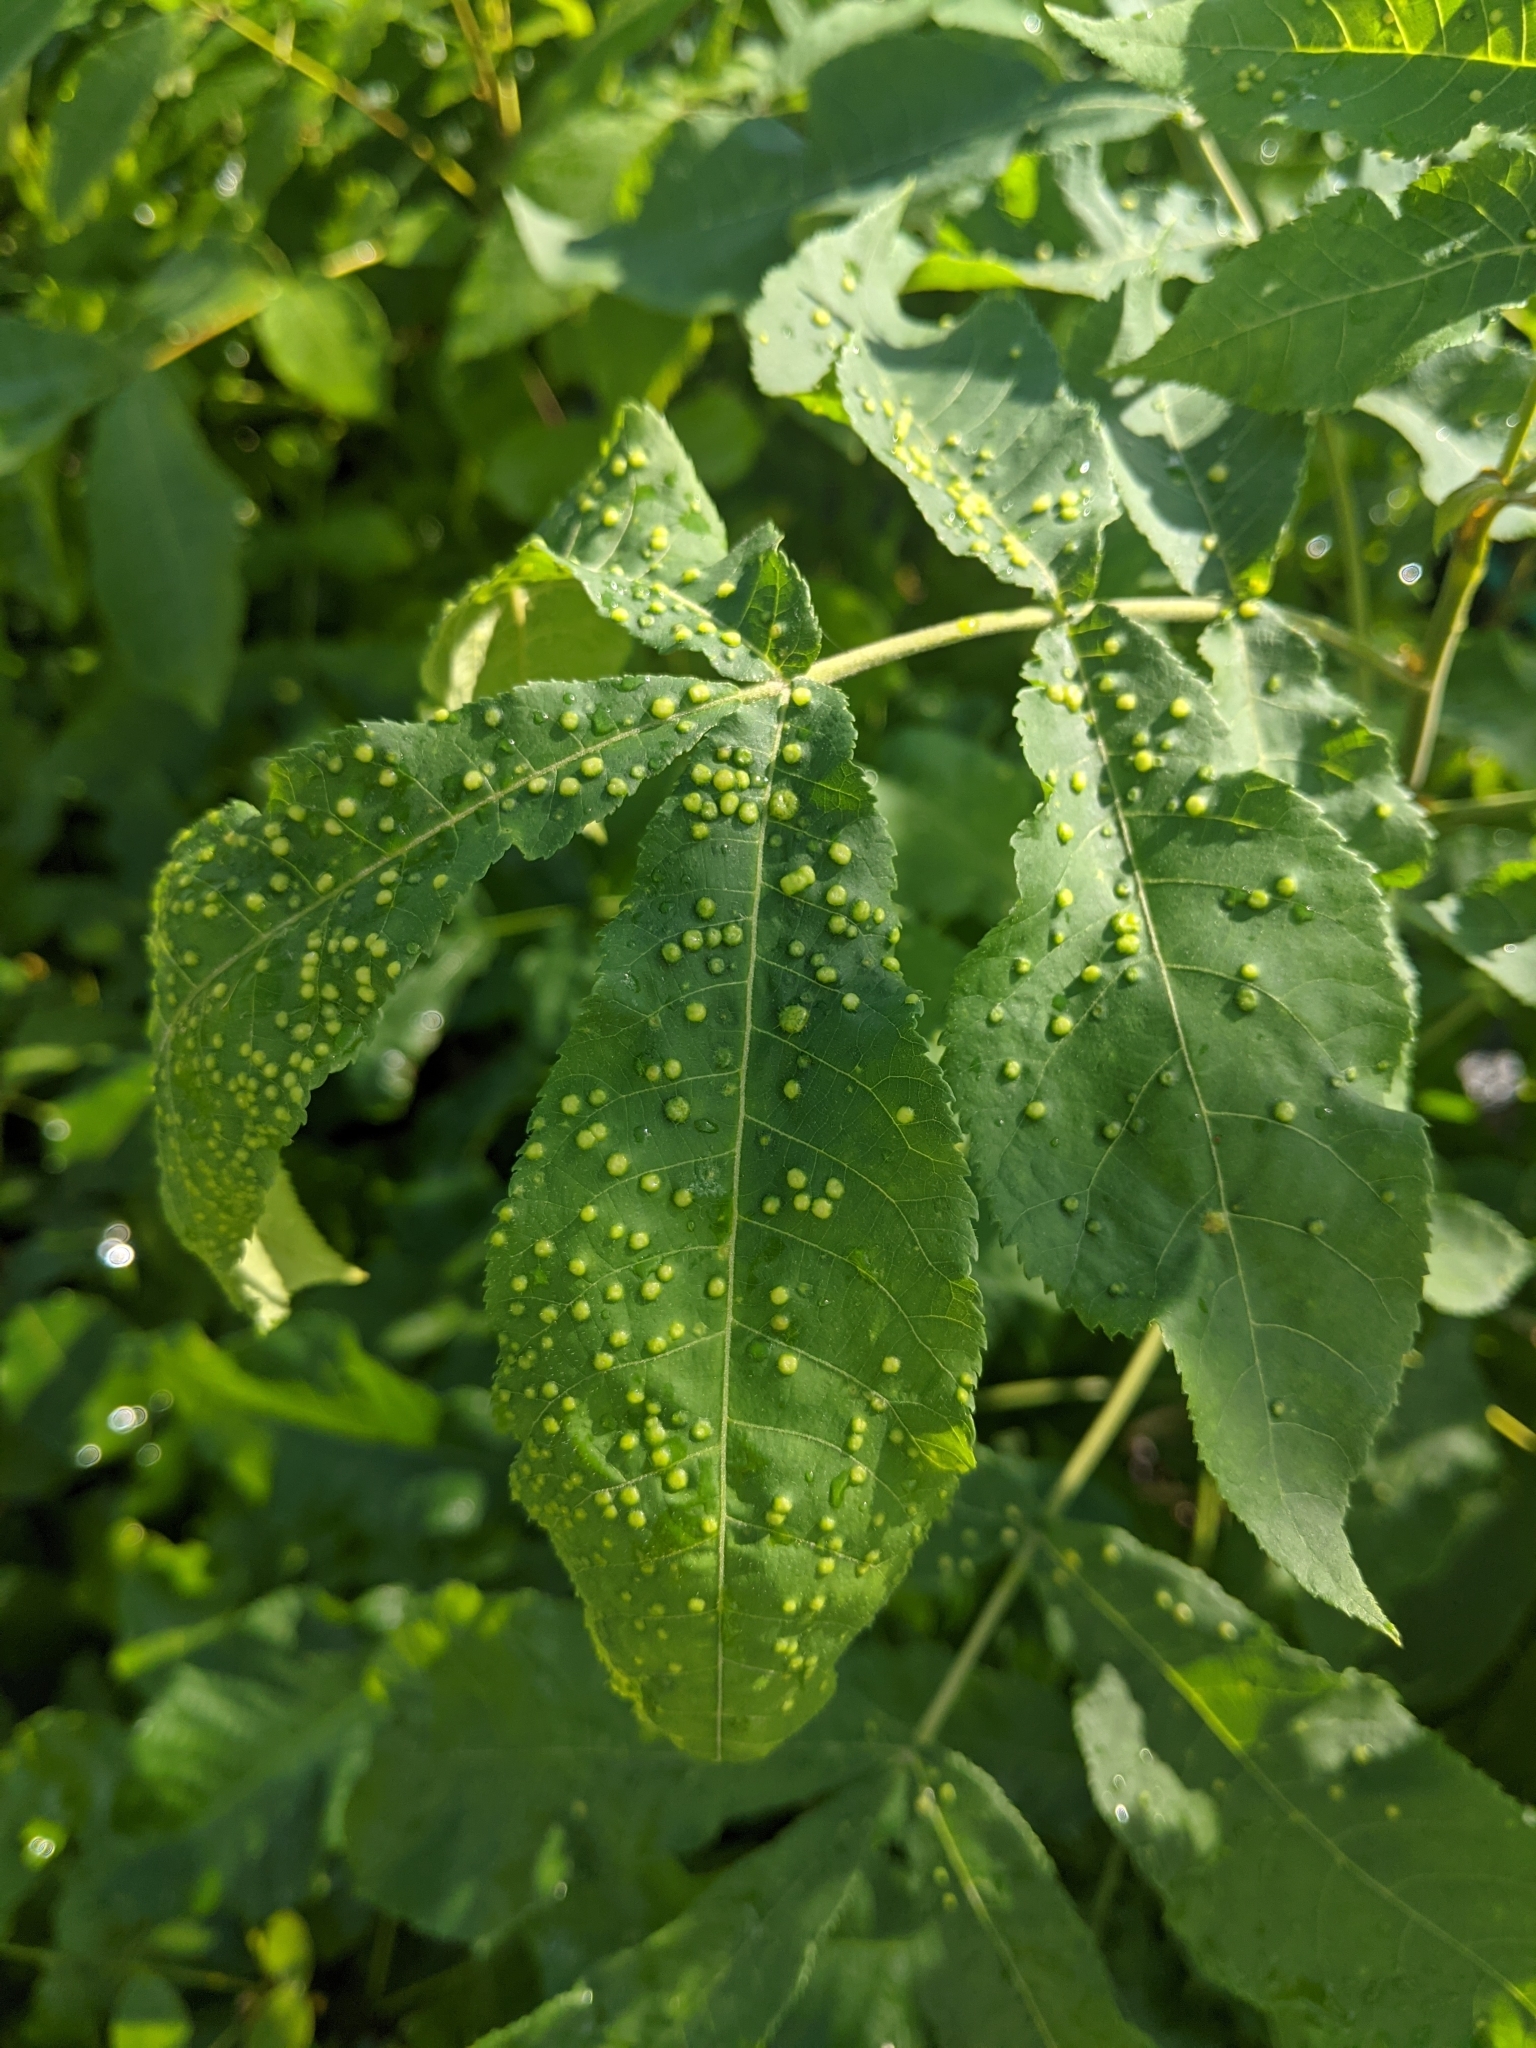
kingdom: Animalia
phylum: Arthropoda
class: Insecta
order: Hemiptera
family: Phylloxeridae
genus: Phylloxera
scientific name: Phylloxera caryae-semen
